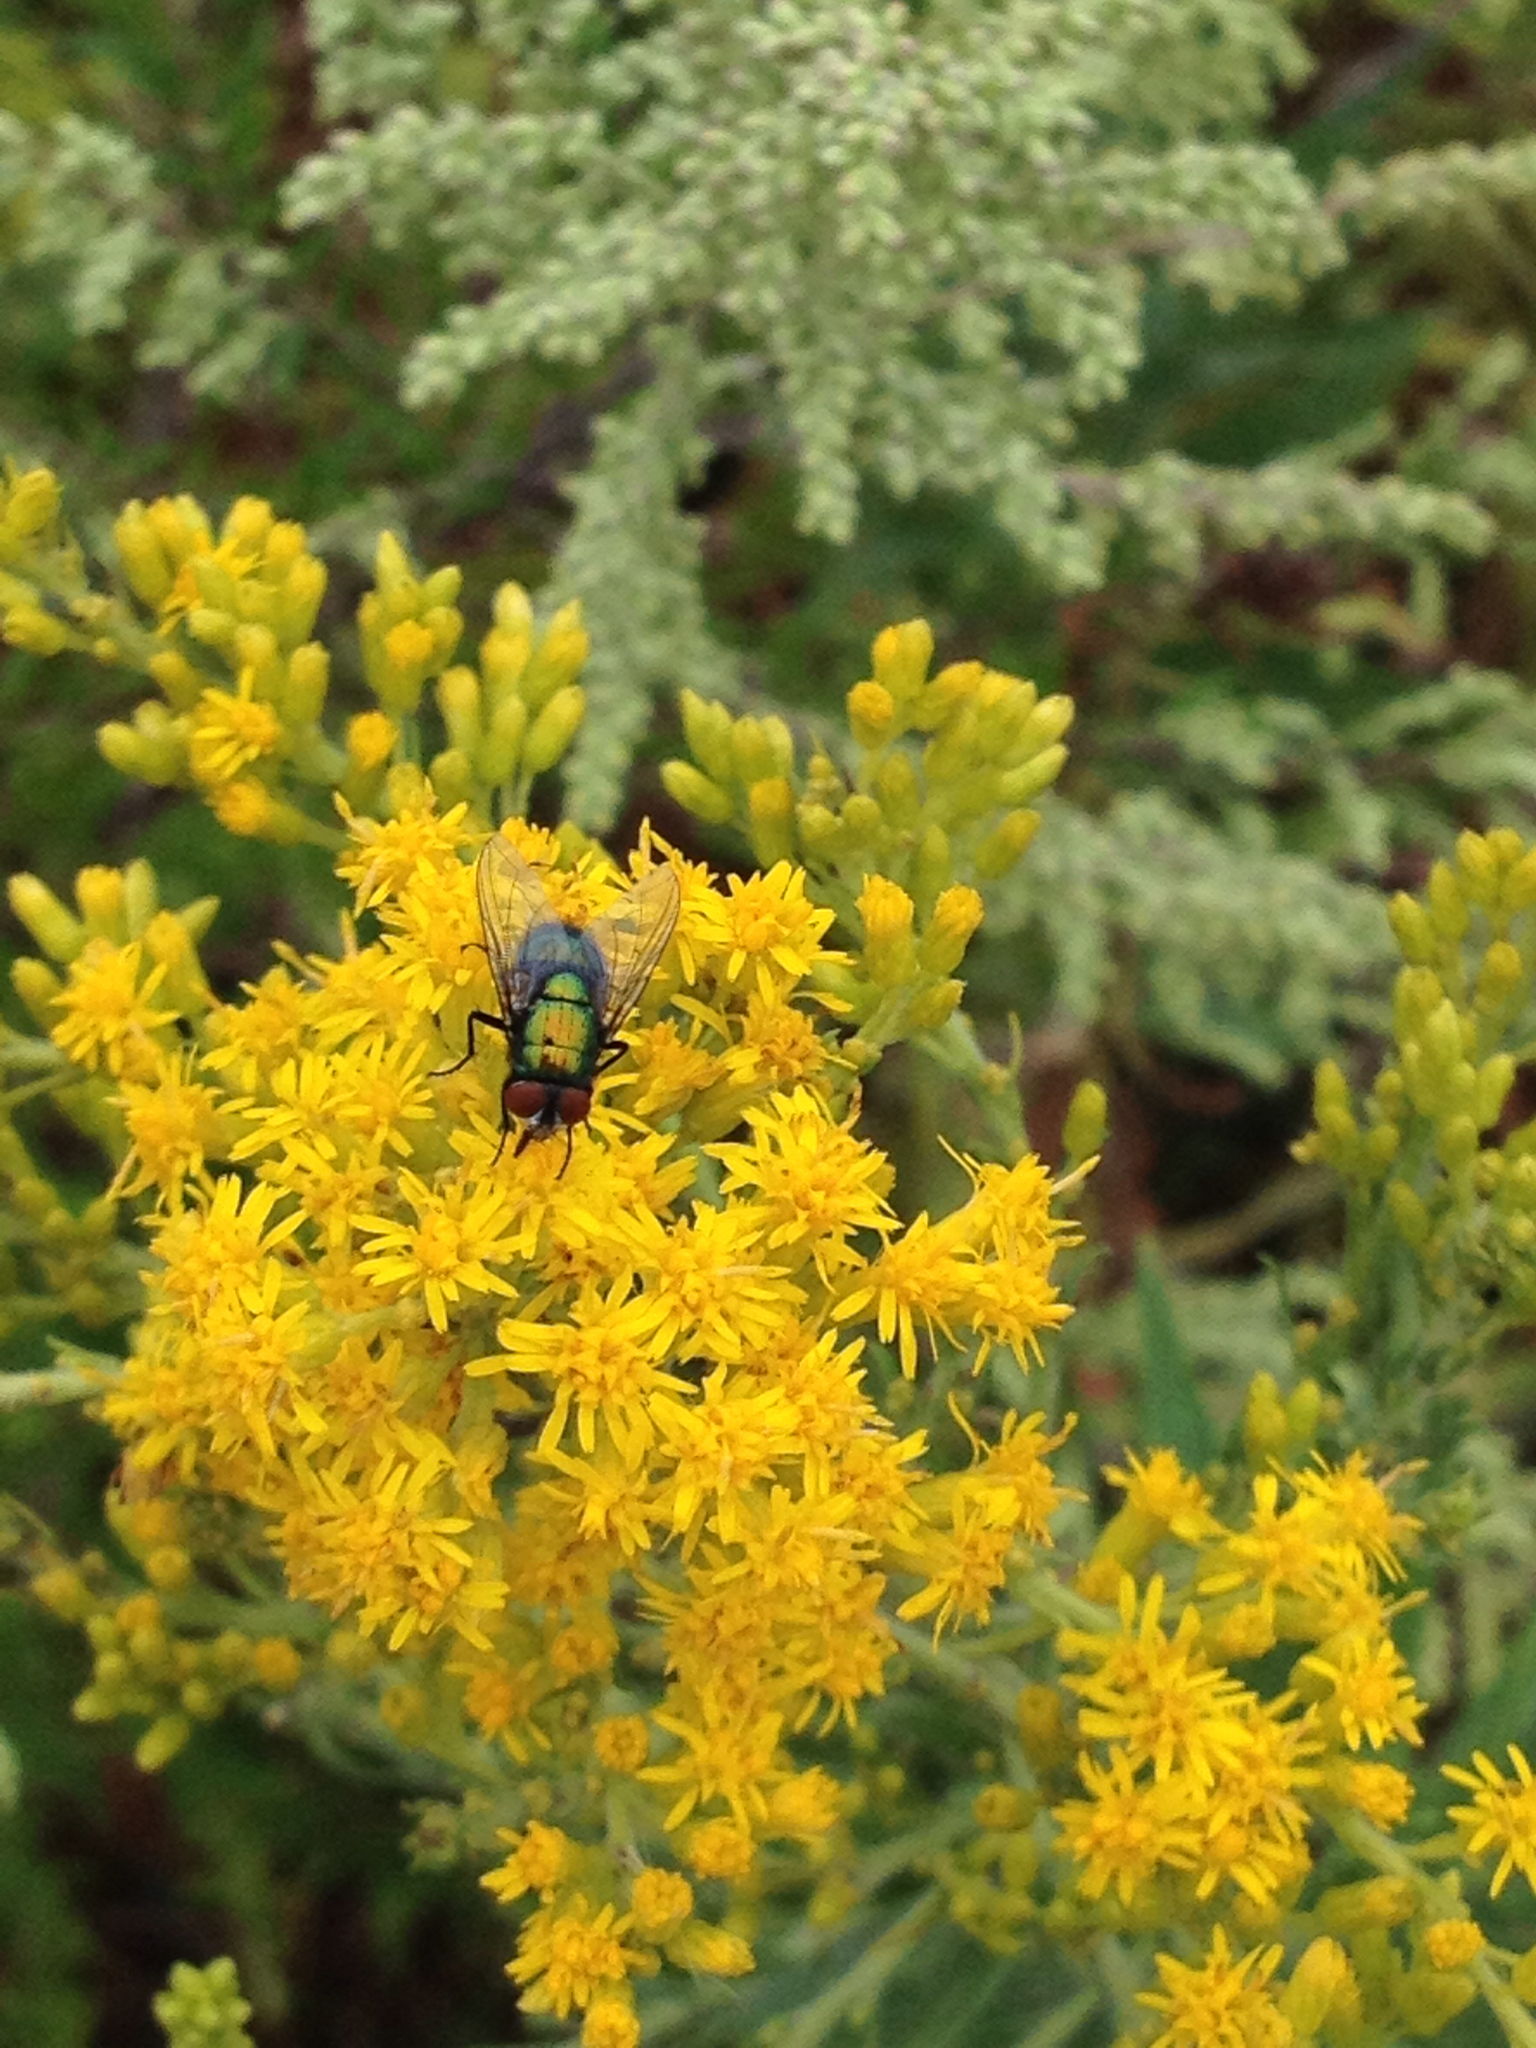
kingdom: Animalia
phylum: Arthropoda
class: Insecta
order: Diptera
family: Calliphoridae
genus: Lucilia
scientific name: Lucilia sericata
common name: Blow fly
